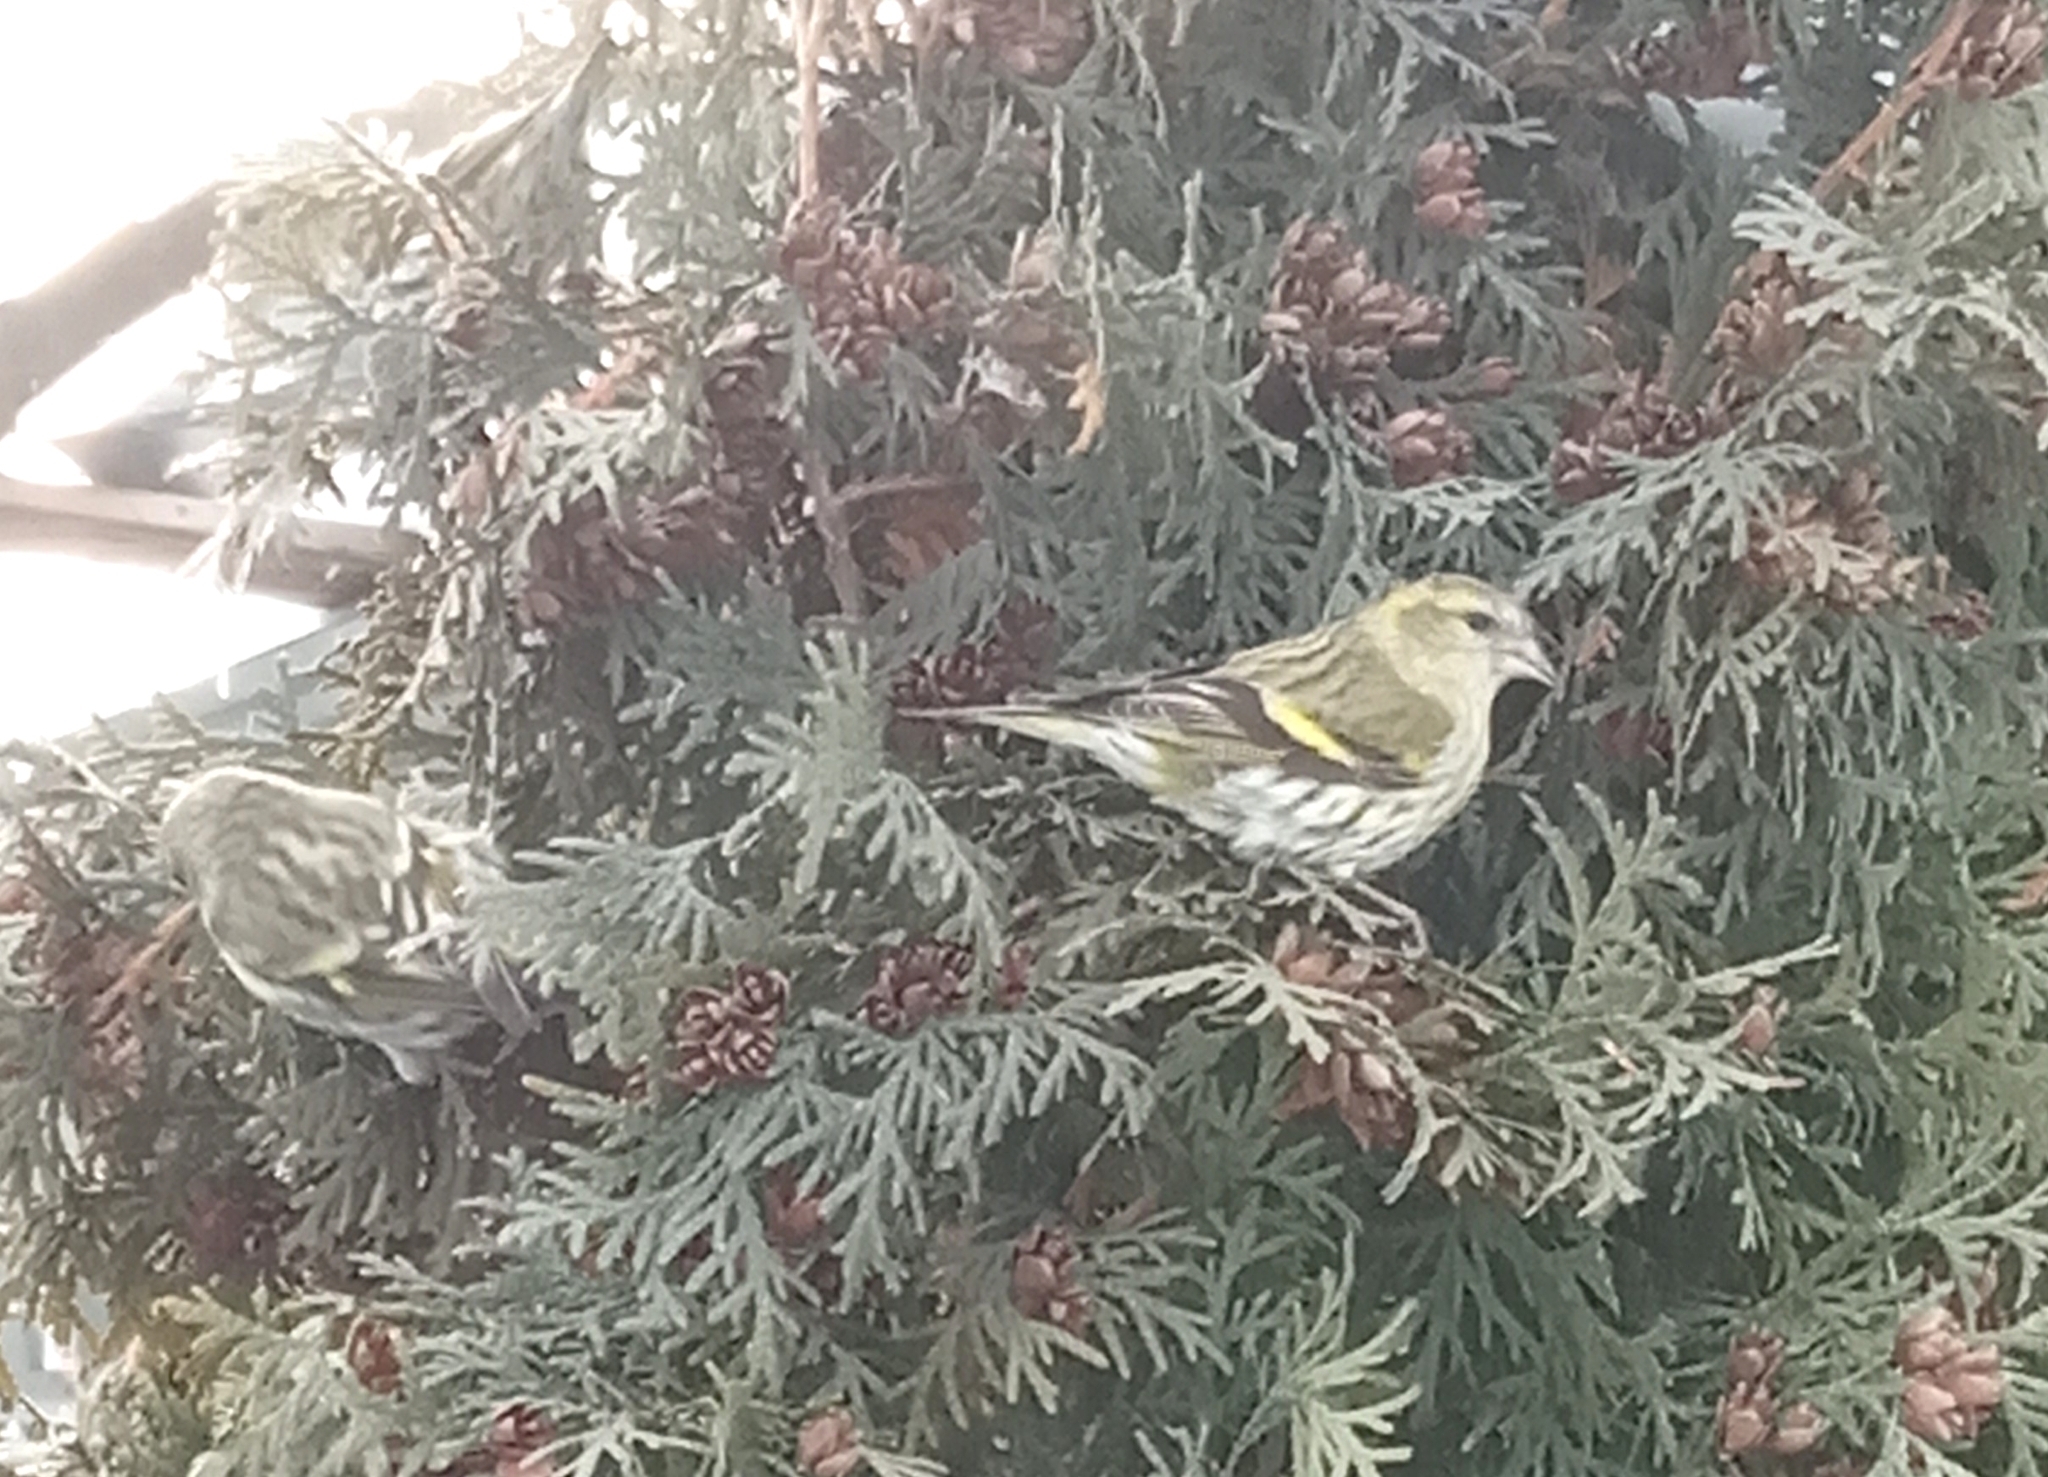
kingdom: Animalia
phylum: Chordata
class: Aves
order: Passeriformes
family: Fringillidae
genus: Spinus
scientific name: Spinus spinus
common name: Eurasian siskin
